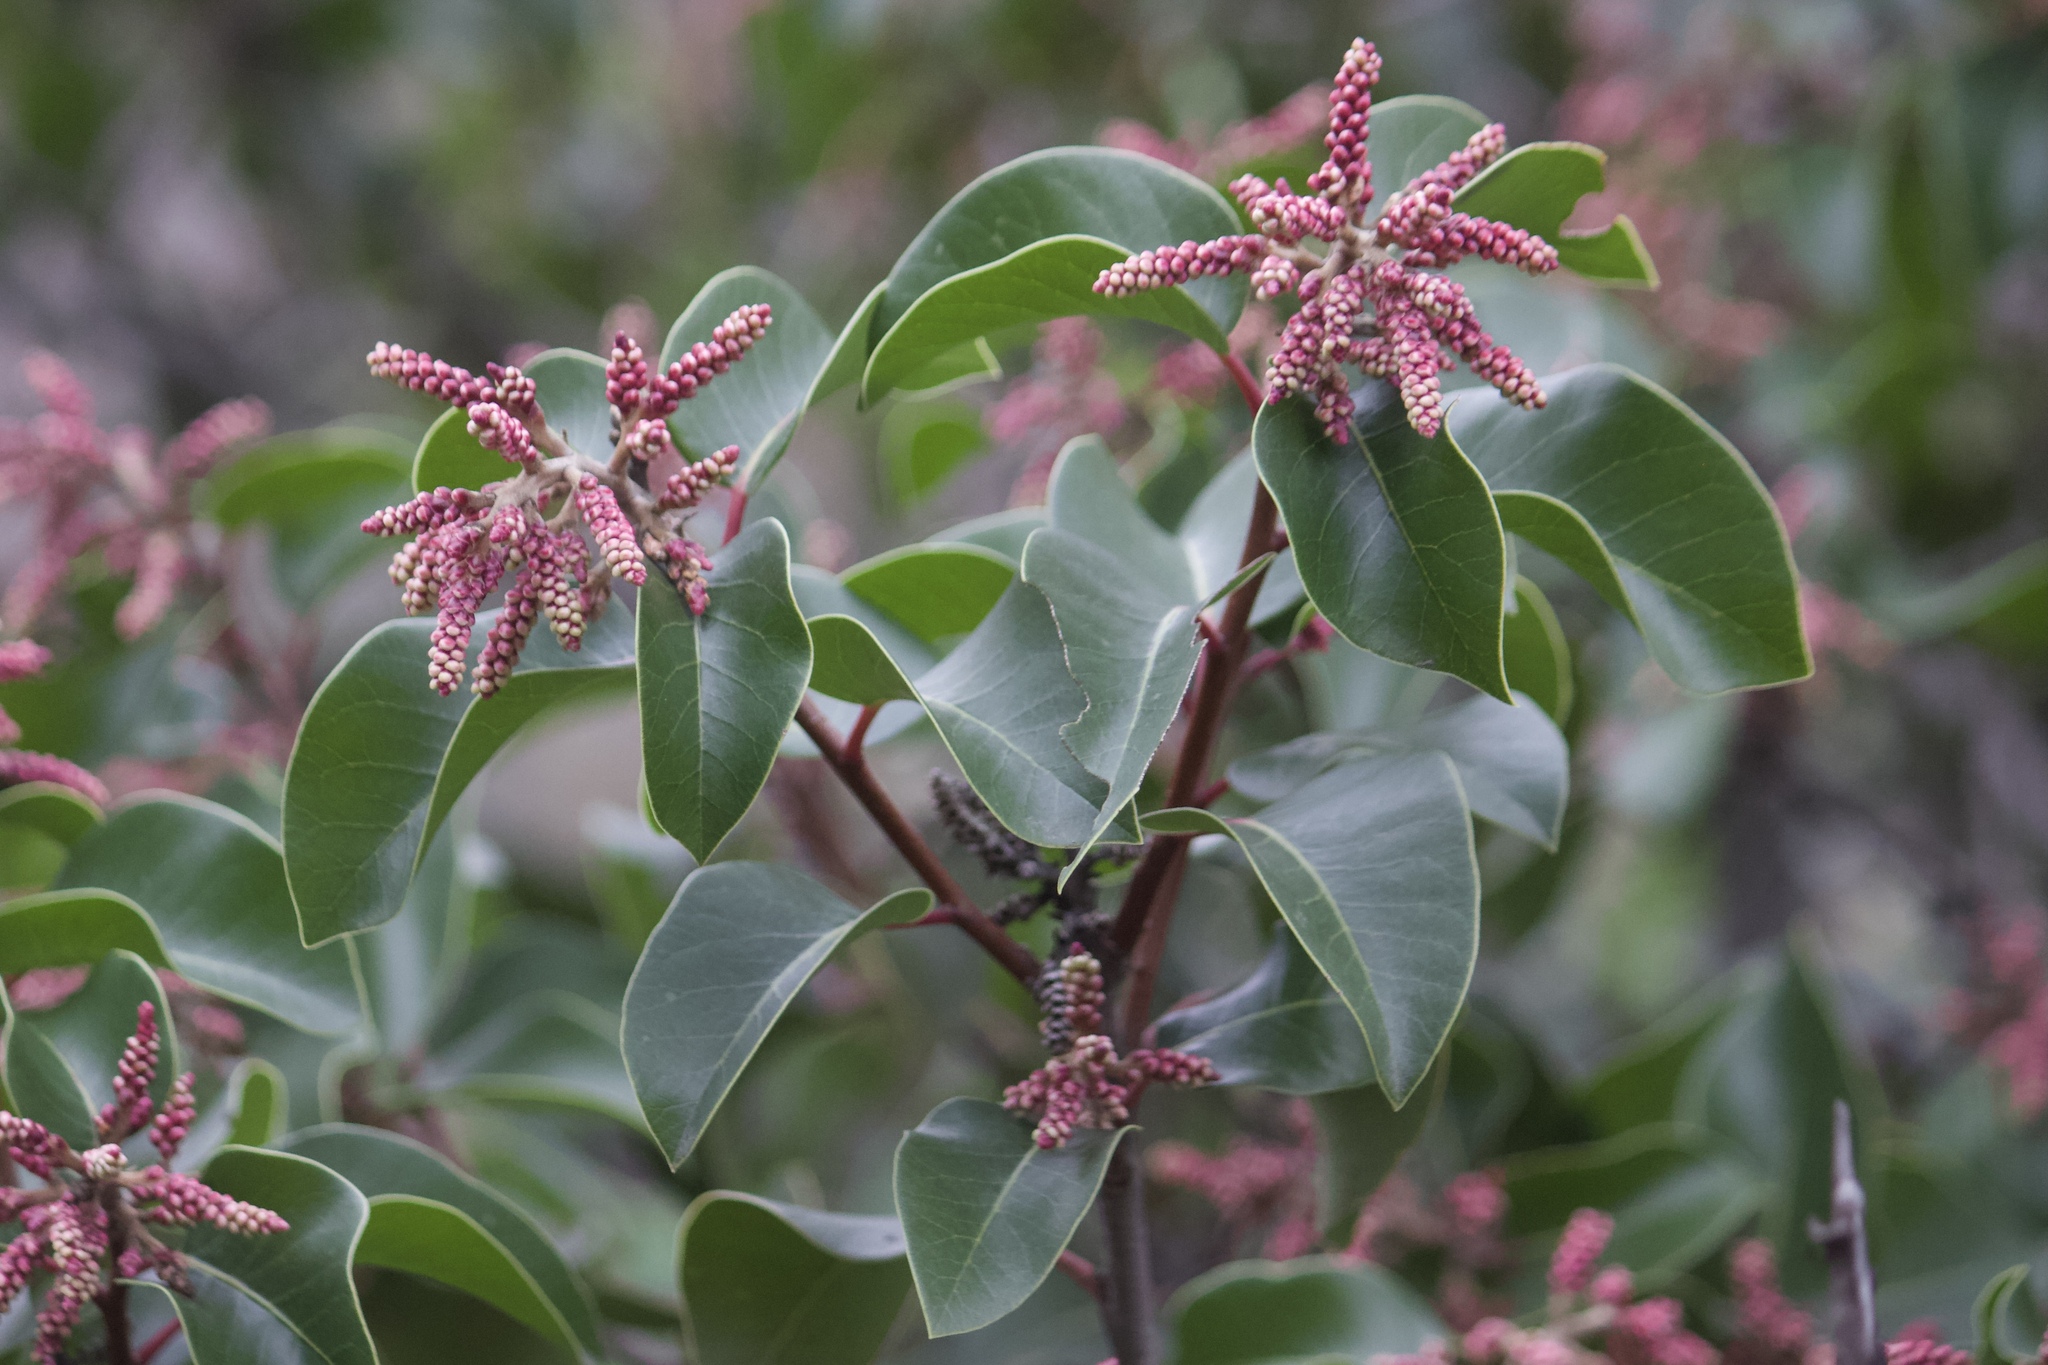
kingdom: Plantae
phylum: Tracheophyta
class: Magnoliopsida
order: Sapindales
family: Anacardiaceae
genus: Rhus
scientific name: Rhus ovata
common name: Sugar sumac
